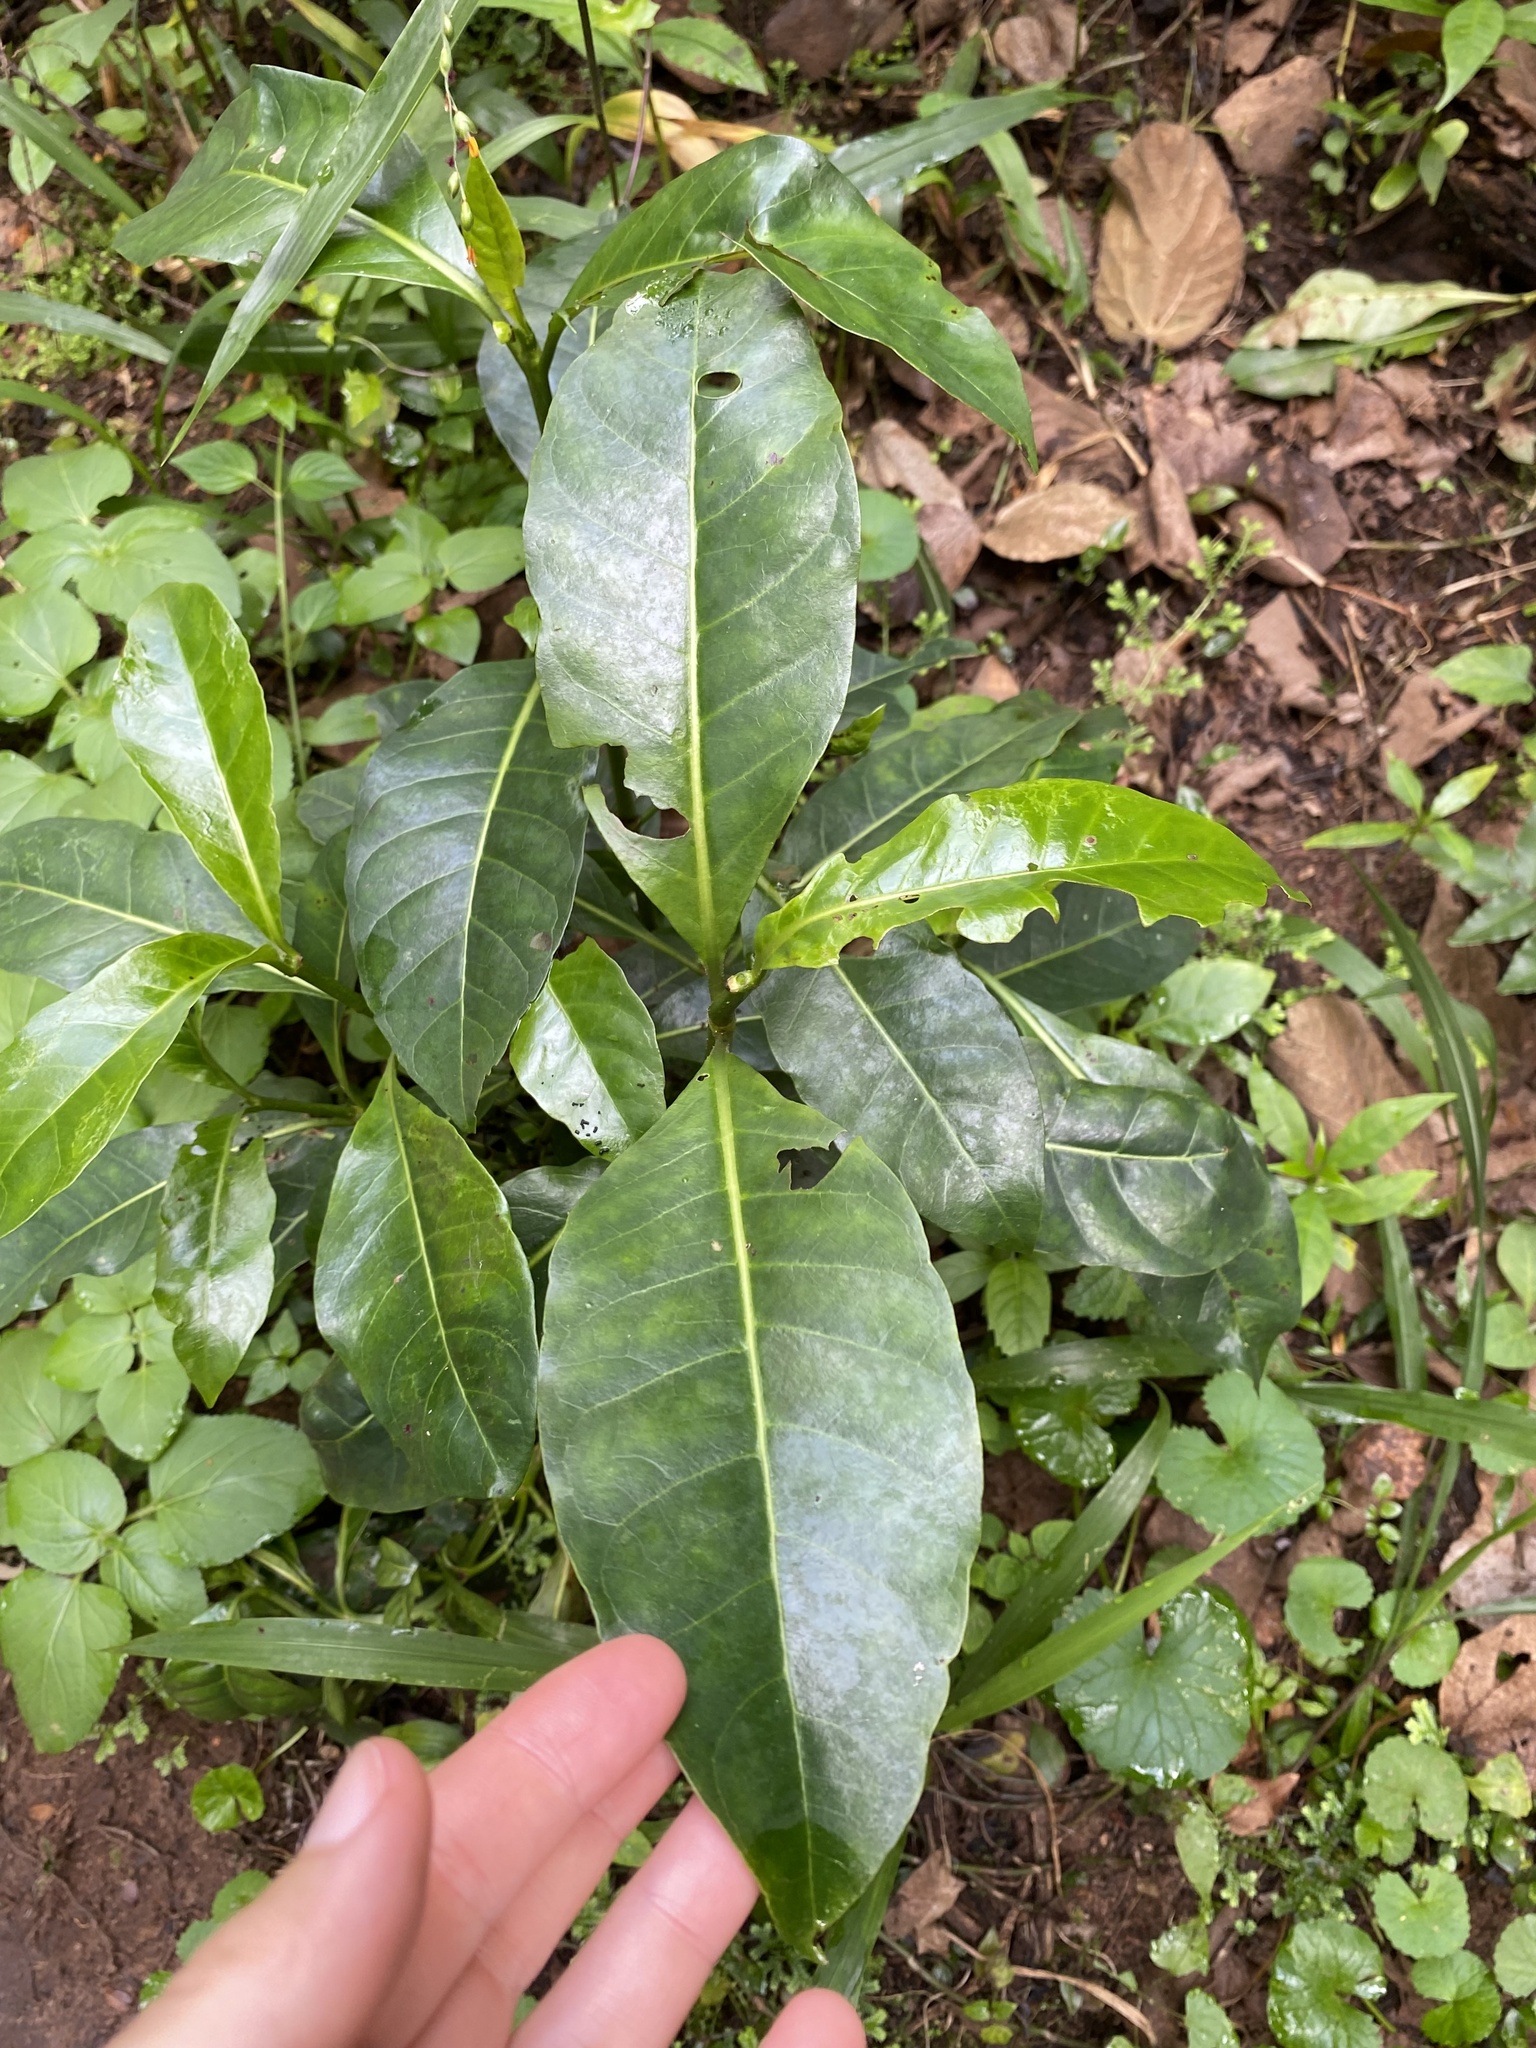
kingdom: Plantae
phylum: Tracheophyta
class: Magnoliopsida
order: Gentianales
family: Rubiaceae
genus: Psychotria
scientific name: Psychotria capensis
